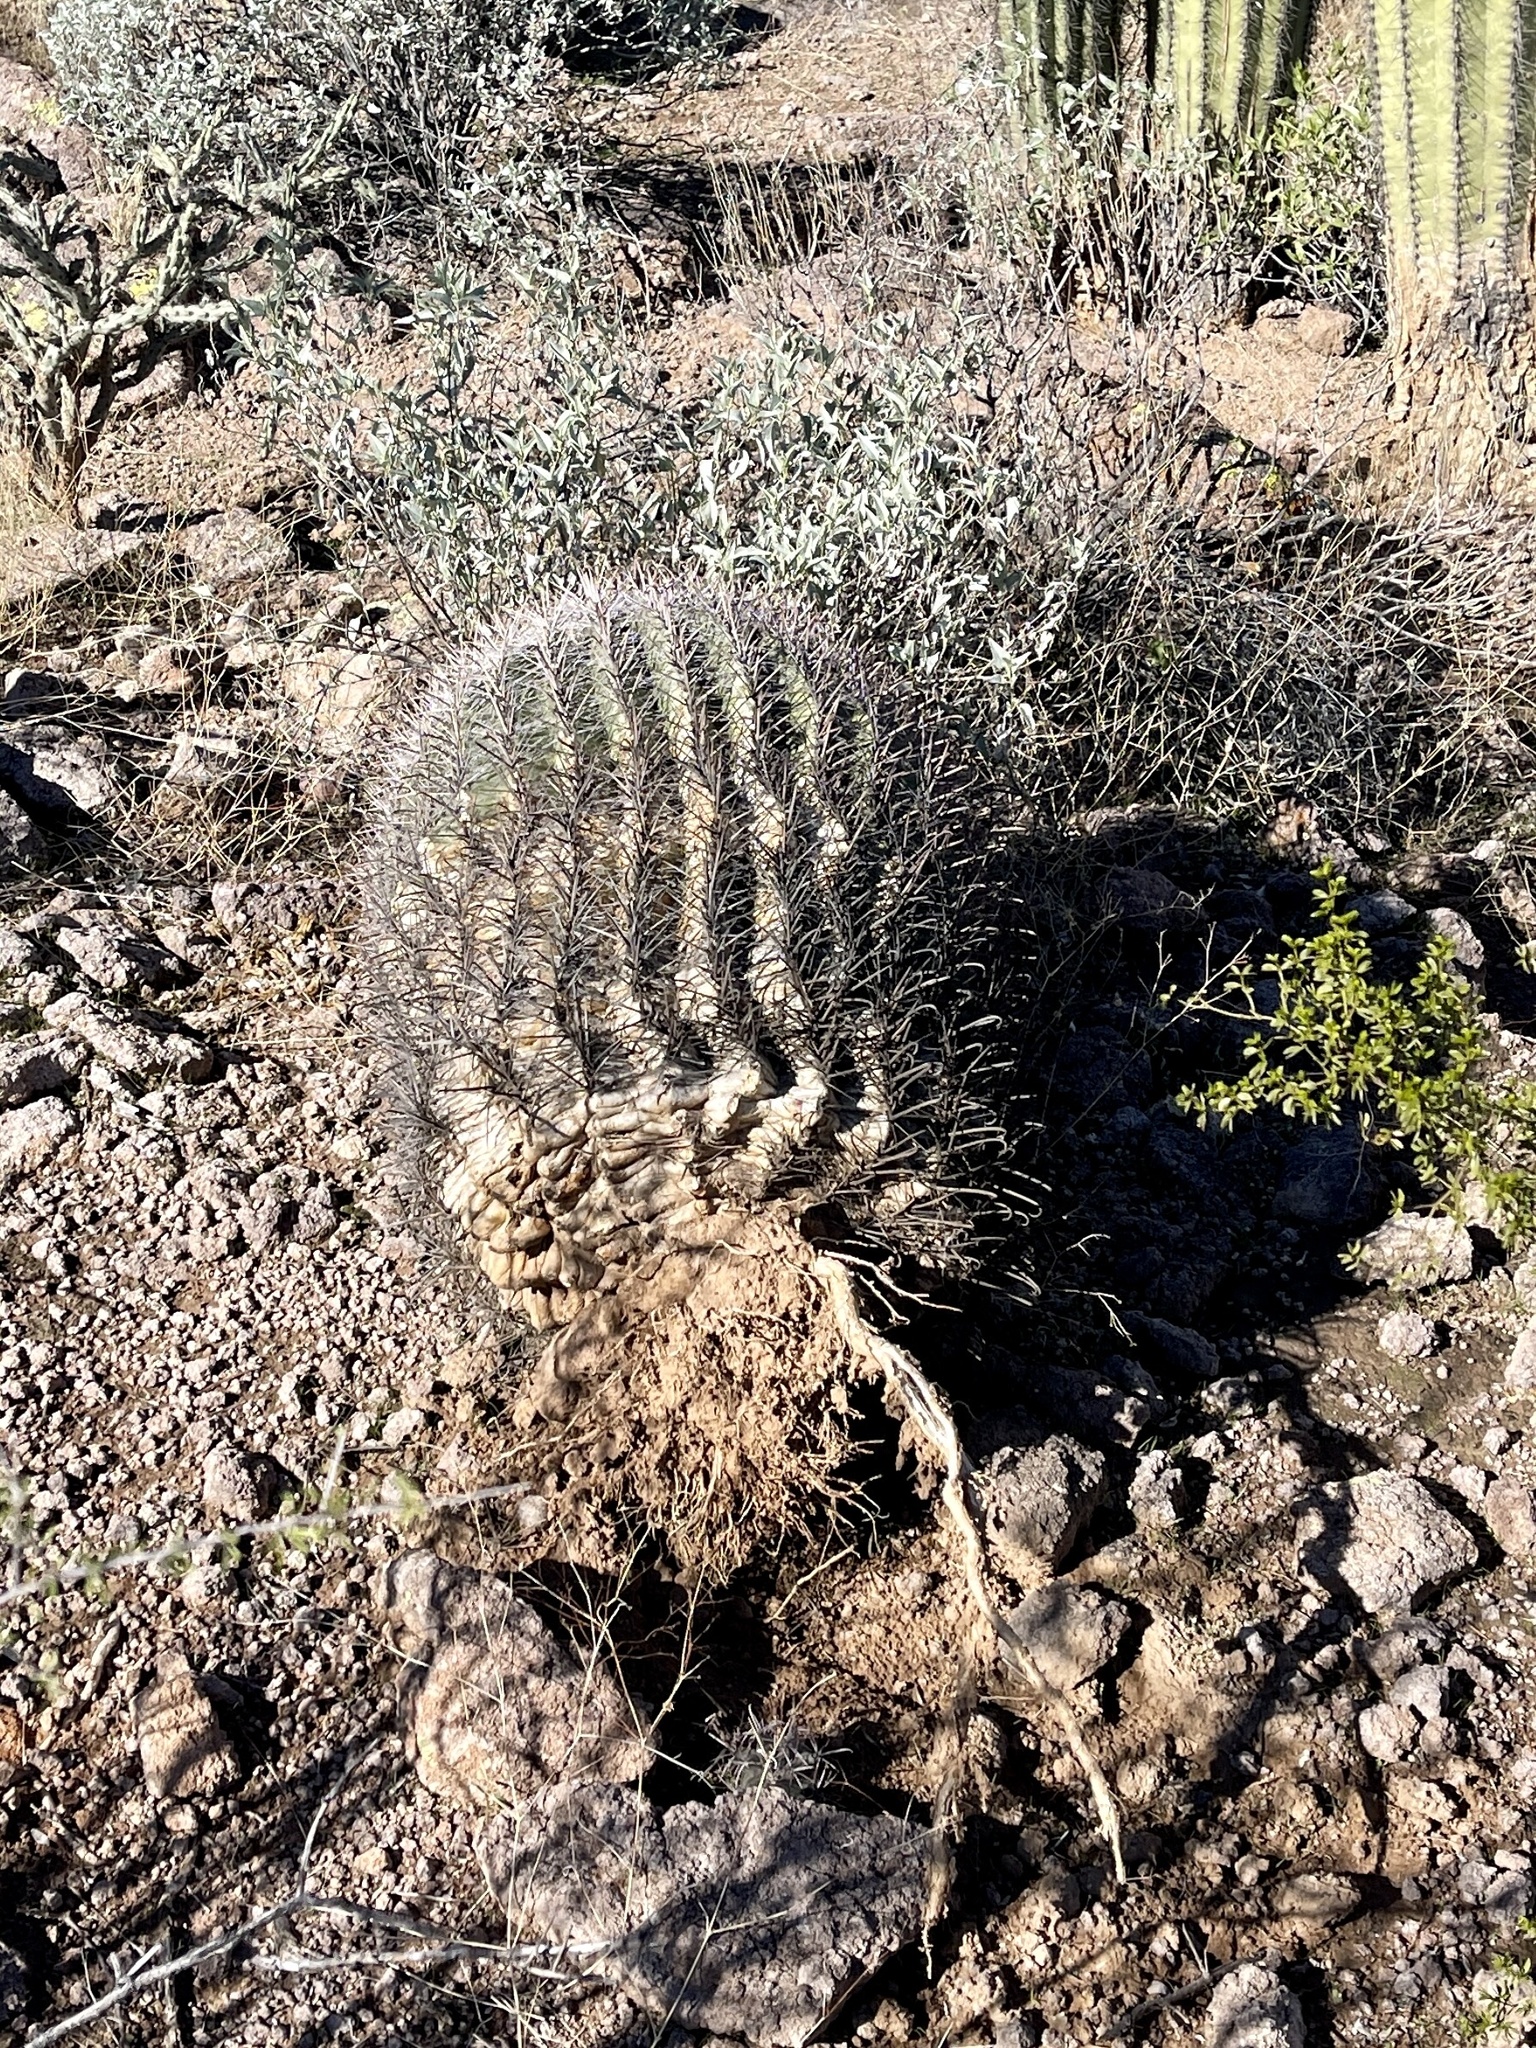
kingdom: Plantae
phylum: Tracheophyta
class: Magnoliopsida
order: Caryophyllales
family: Cactaceae
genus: Ferocactus
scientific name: Ferocactus wislizeni
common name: Candy barrel cactus
